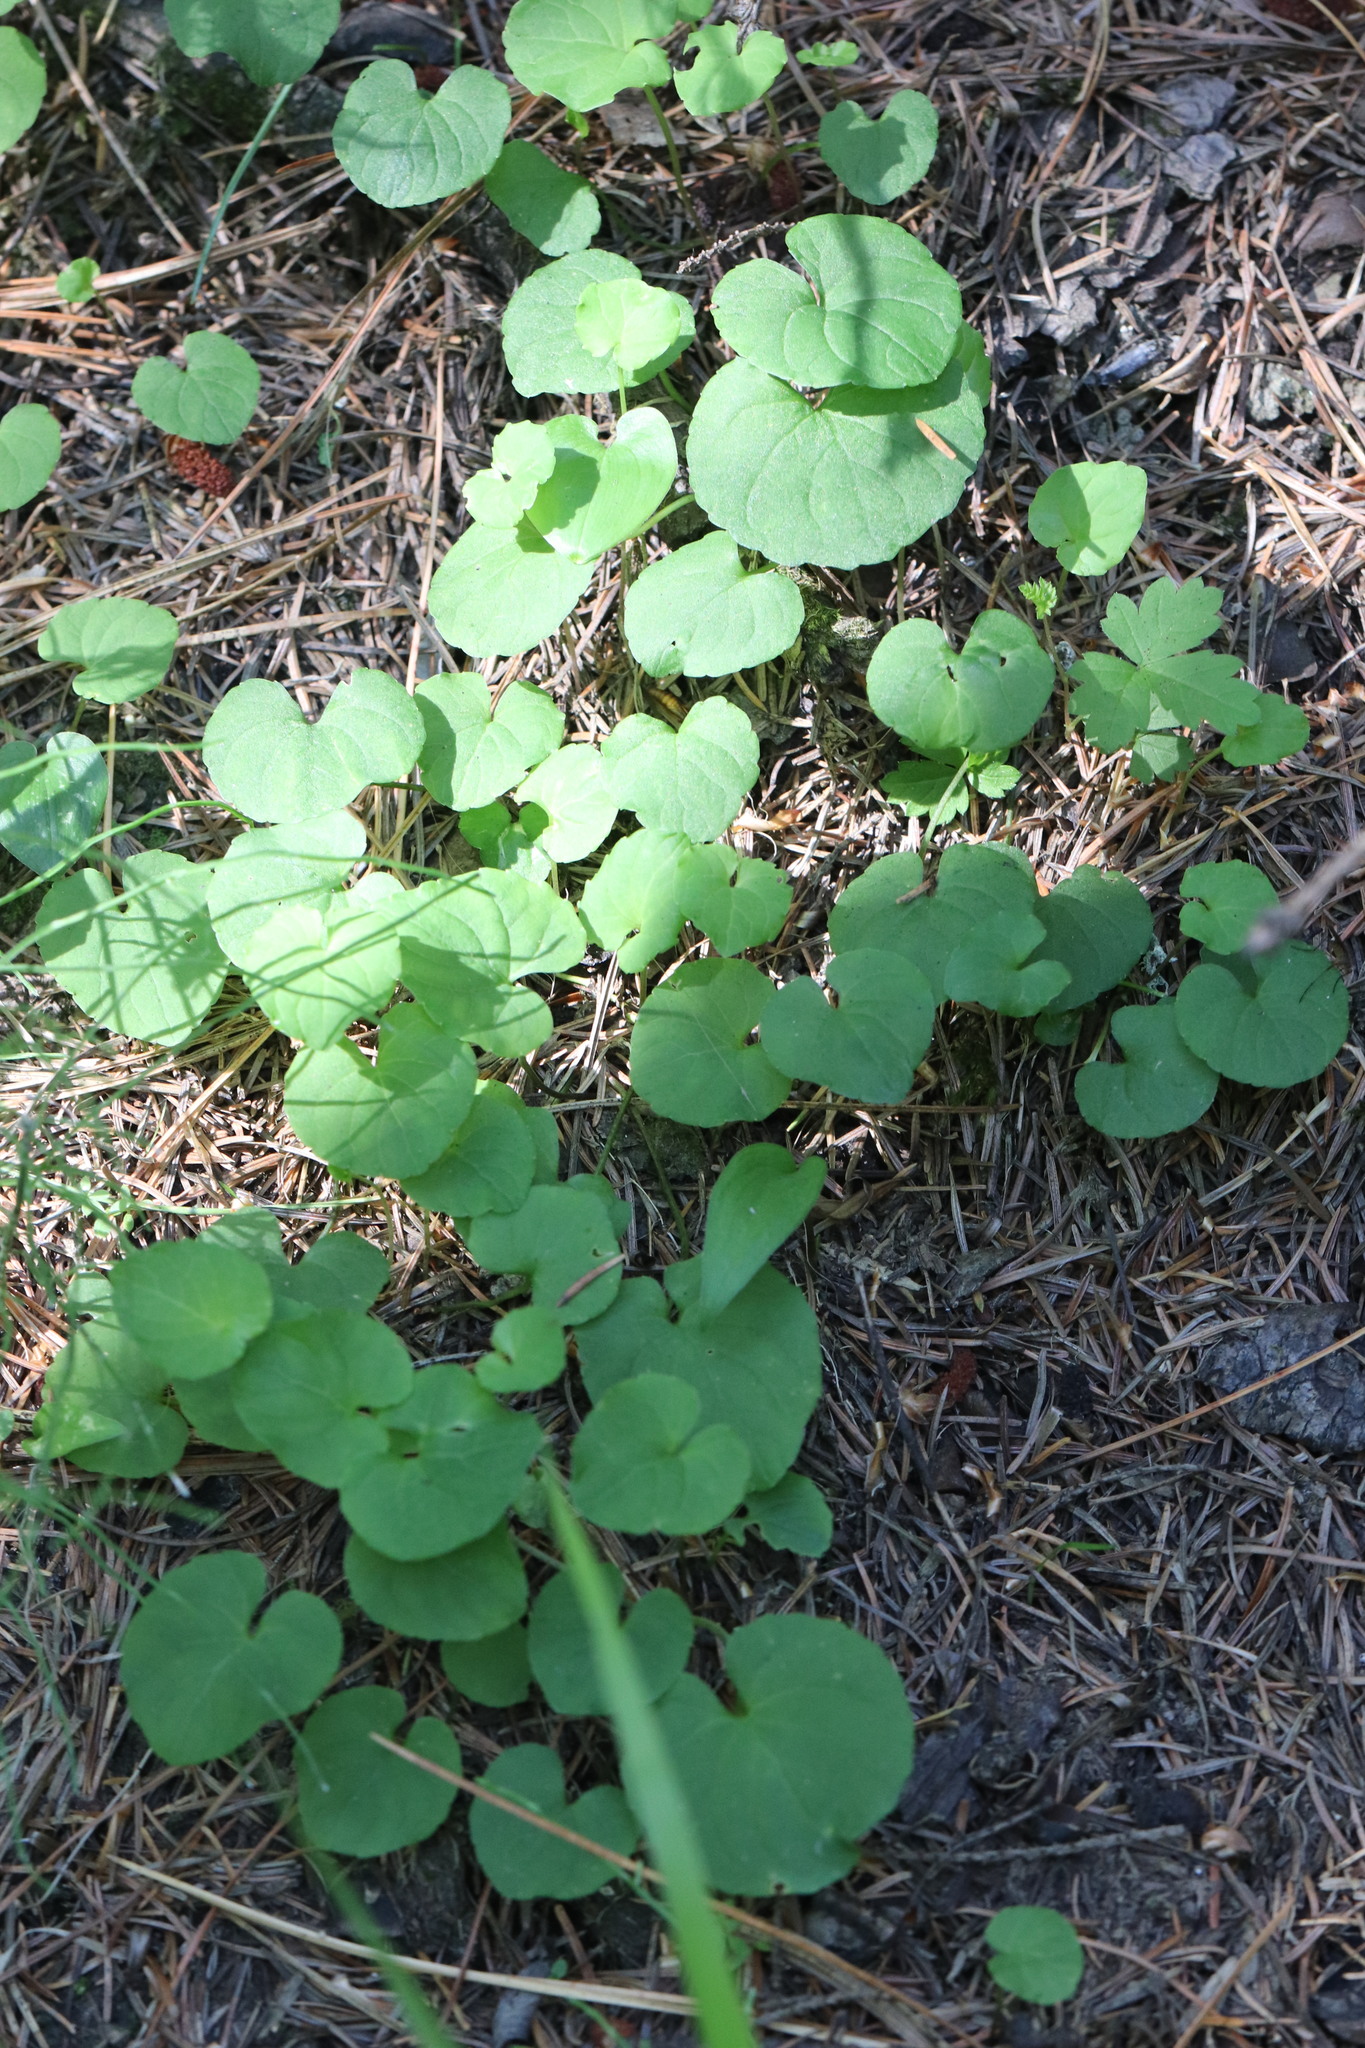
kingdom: Plantae
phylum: Tracheophyta
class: Magnoliopsida
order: Lamiales
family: Lamiaceae
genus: Glechoma
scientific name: Glechoma hederacea
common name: Ground ivy
